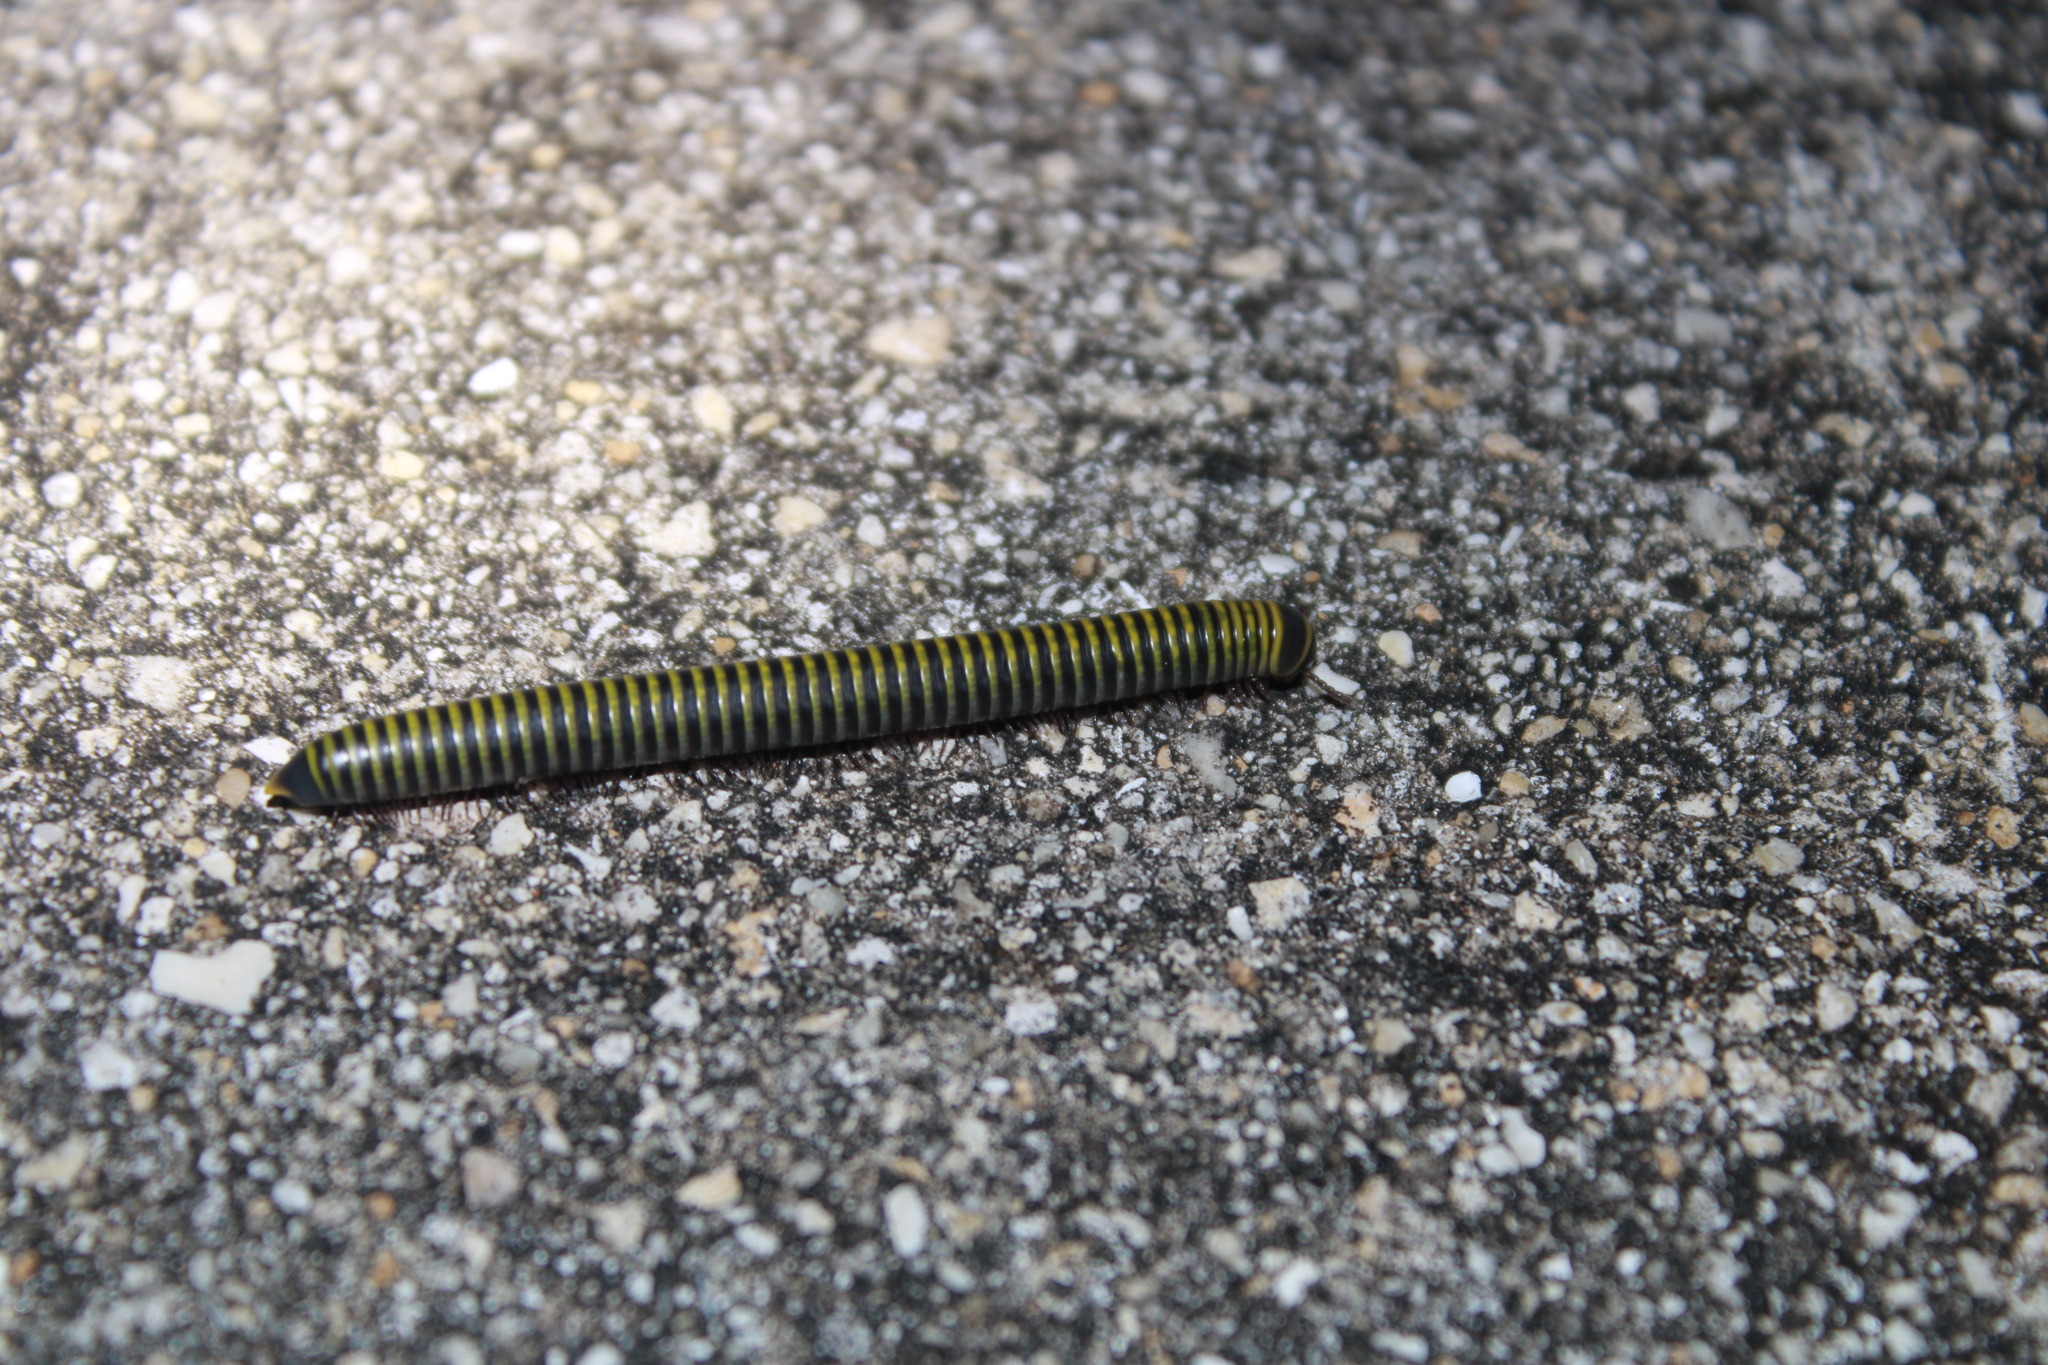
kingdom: Animalia
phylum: Arthropoda
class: Diplopoda
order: Spirobolida
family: Rhinocricidae
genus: Anadenobolus
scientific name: Anadenobolus monilicornis
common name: Caribbean millipede
